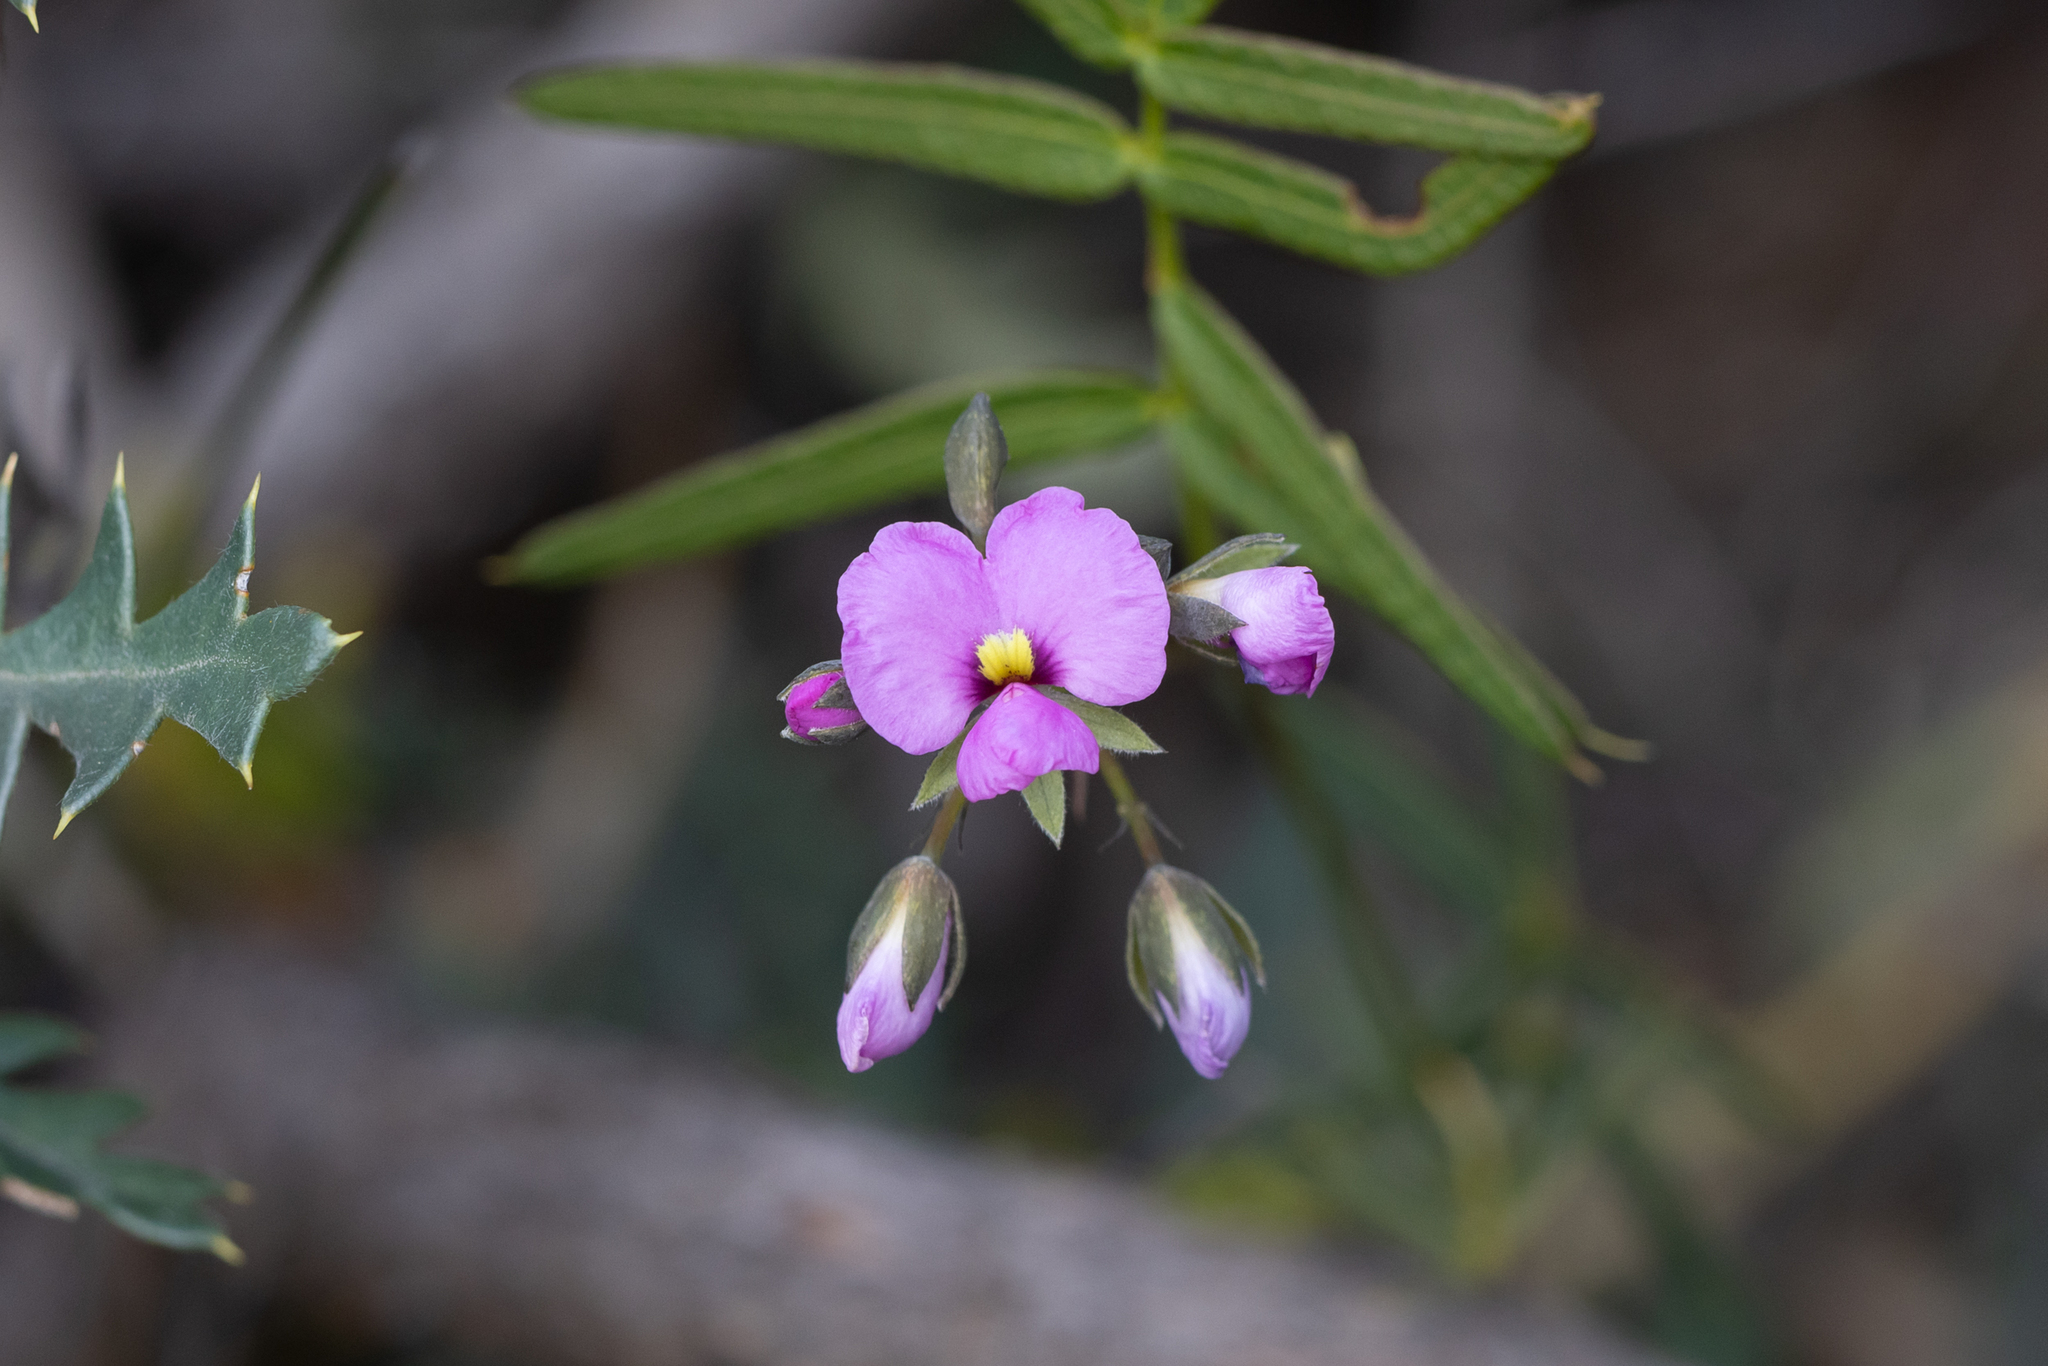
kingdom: Plantae
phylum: Tracheophyta
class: Magnoliopsida
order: Fabales
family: Fabaceae
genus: Gompholobium
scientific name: Gompholobium knightianum
